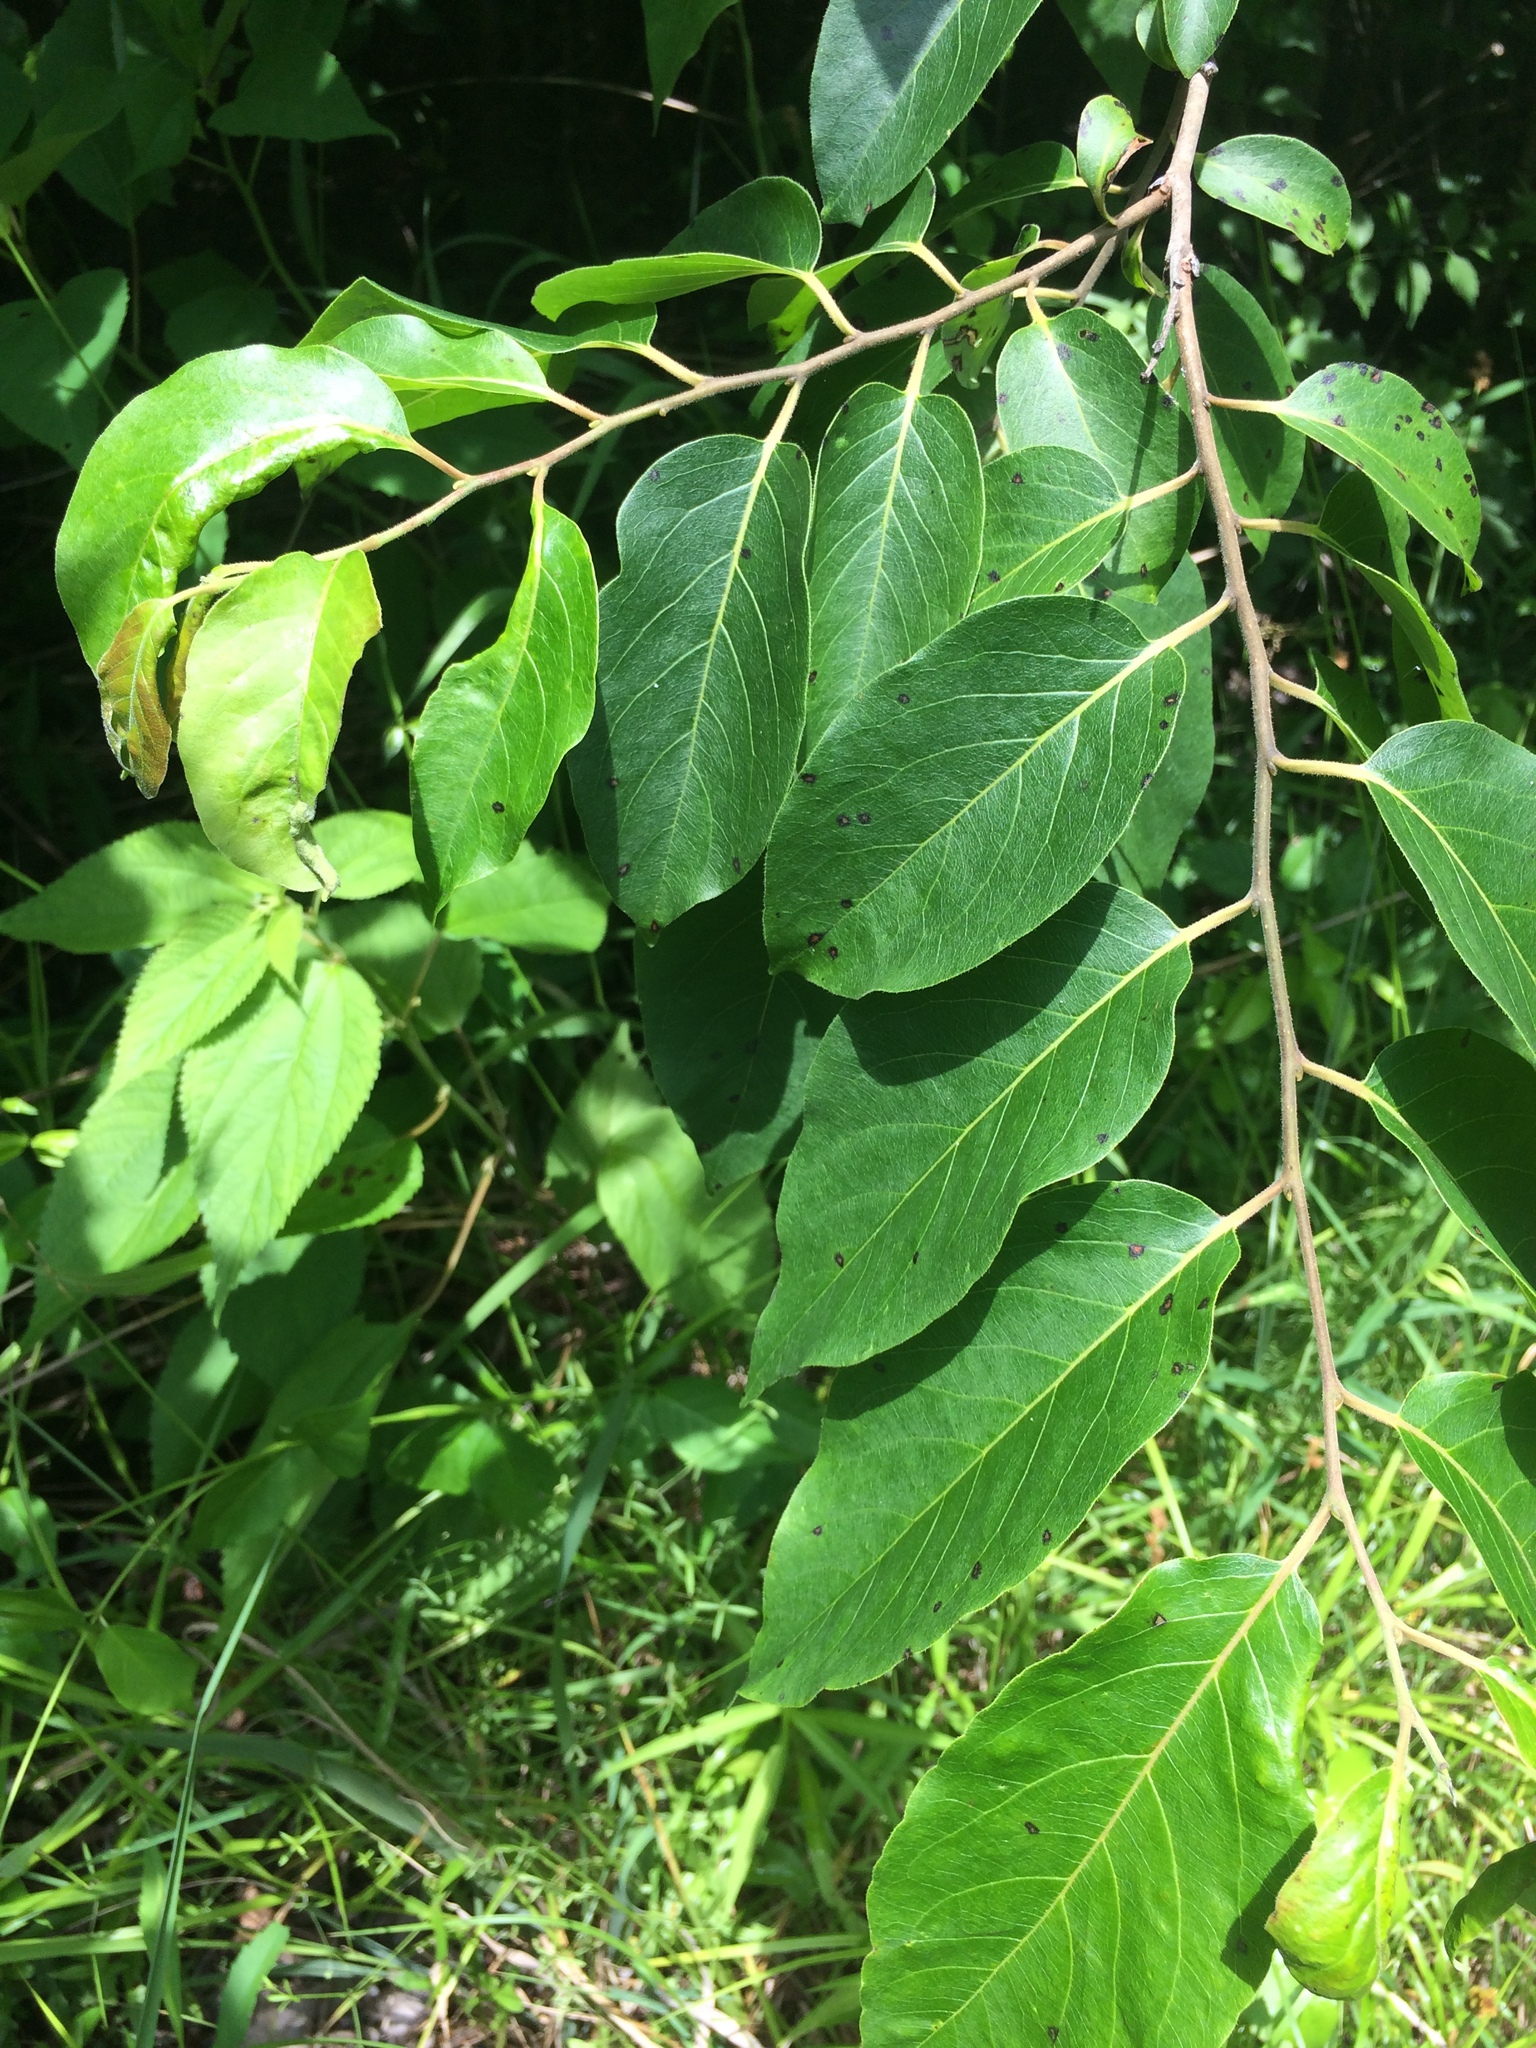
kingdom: Plantae
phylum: Tracheophyta
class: Magnoliopsida
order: Ericales
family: Ebenaceae
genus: Diospyros
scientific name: Diospyros virginiana
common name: Persimmon
